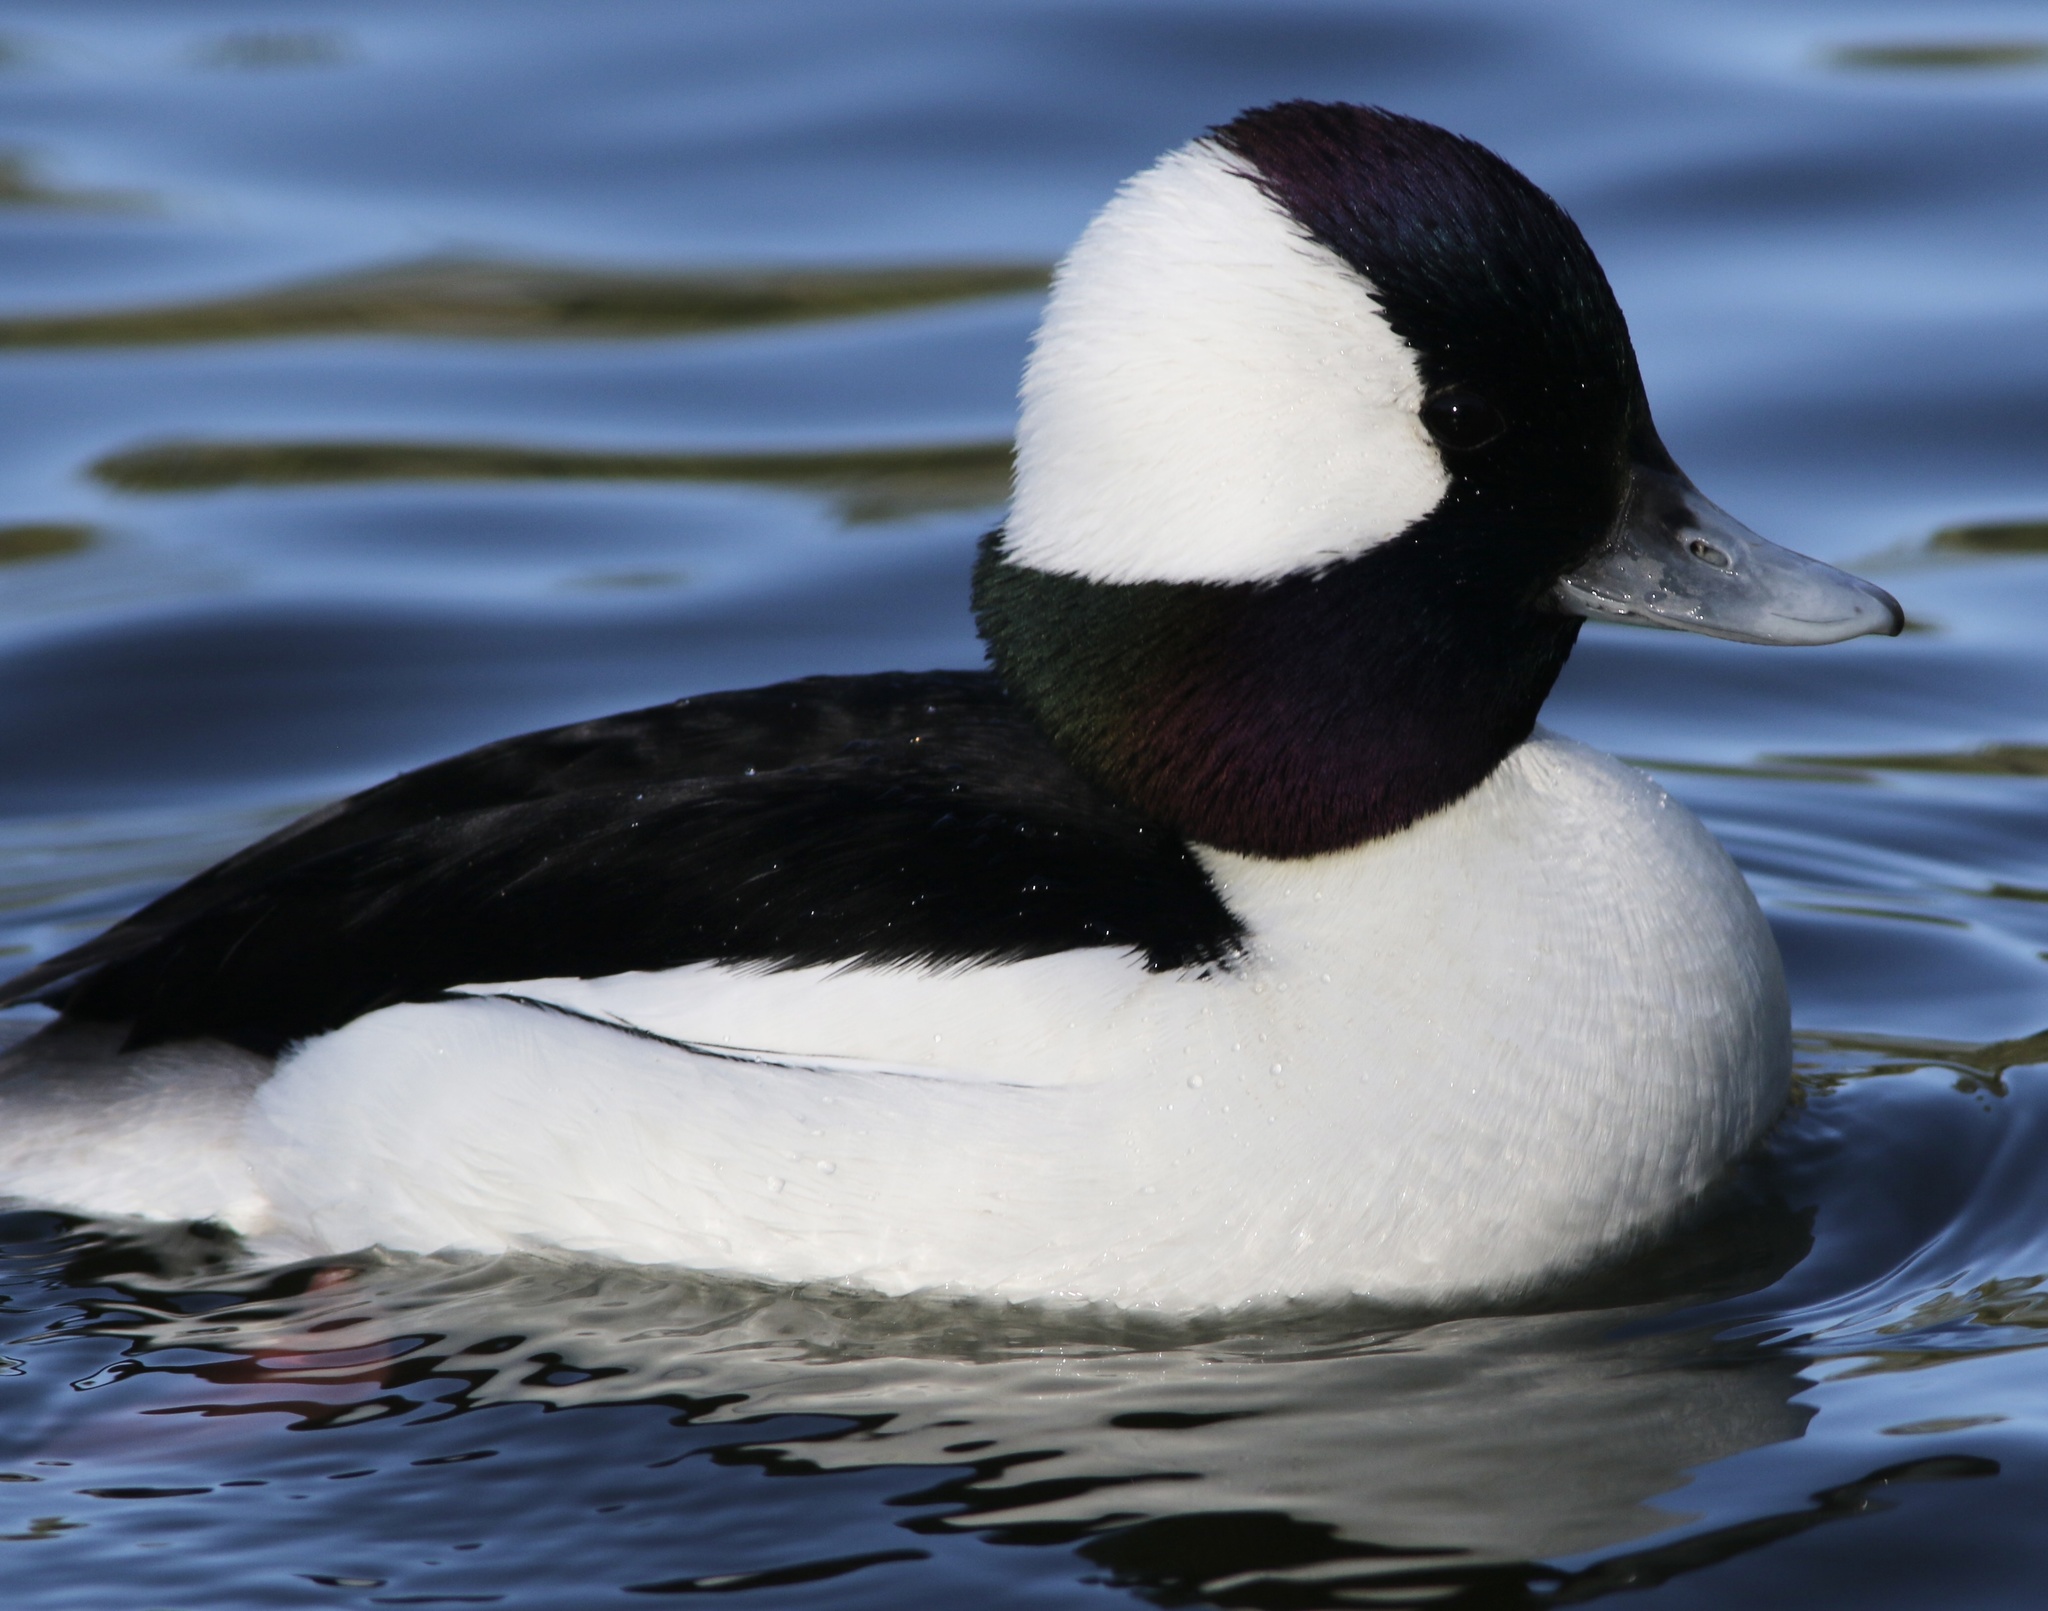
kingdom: Animalia
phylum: Chordata
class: Aves
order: Anseriformes
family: Anatidae
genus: Bucephala
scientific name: Bucephala albeola
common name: Bufflehead
